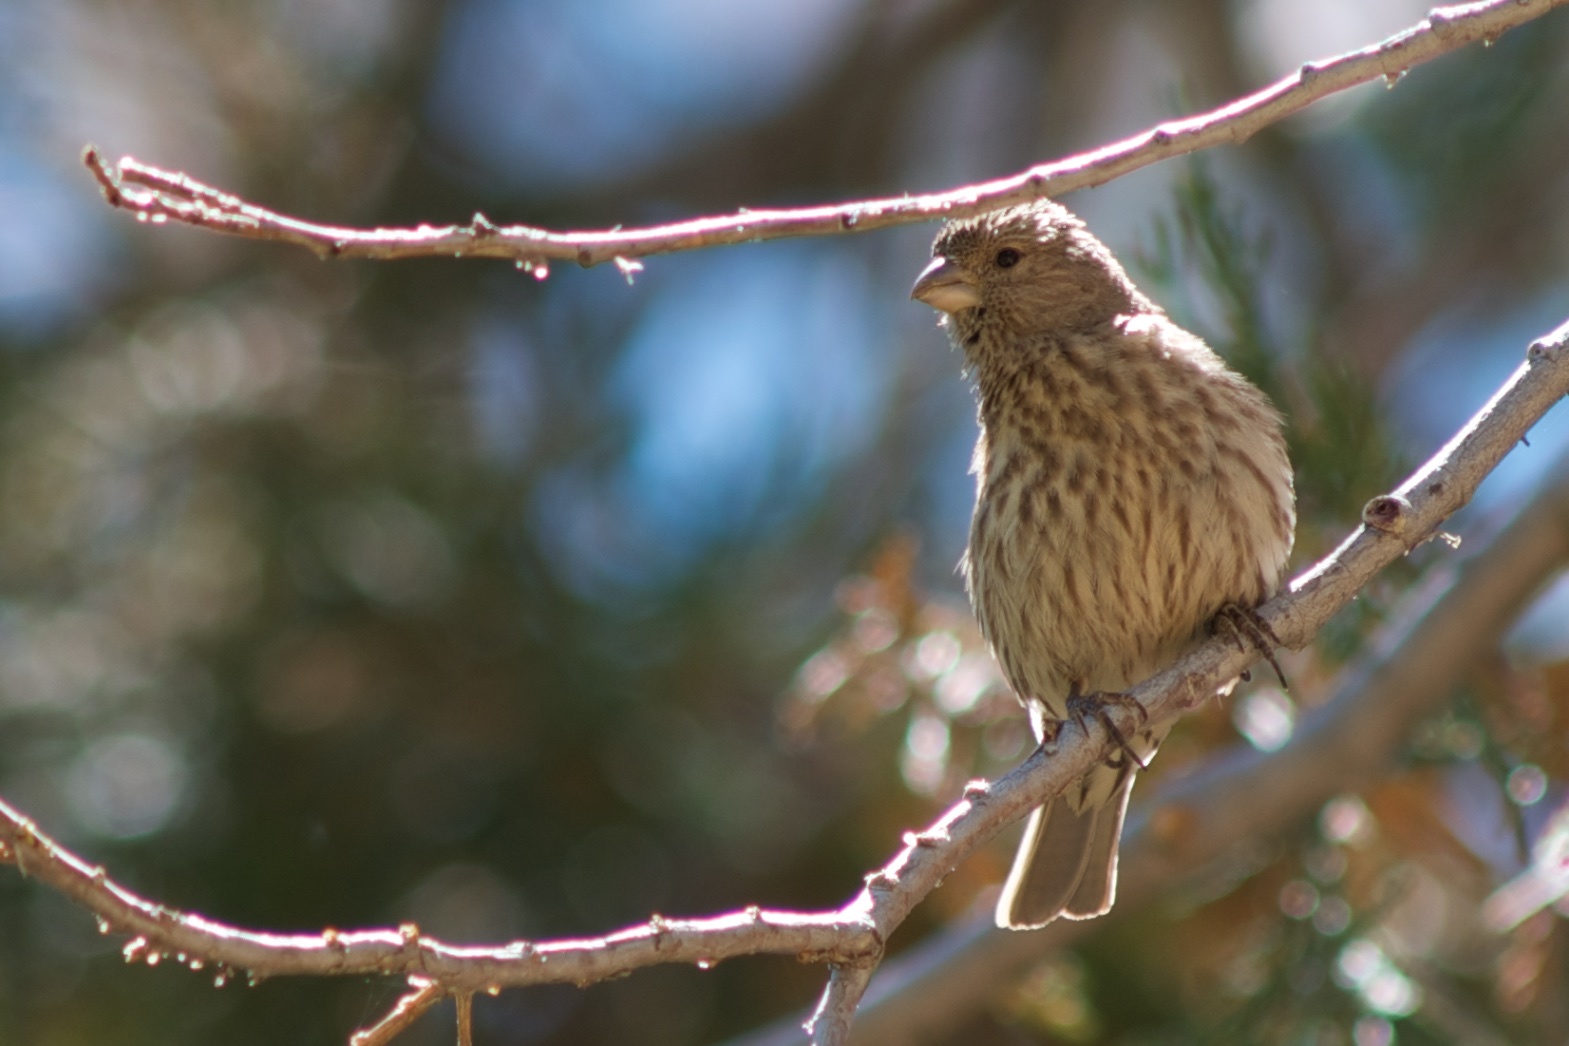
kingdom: Animalia
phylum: Chordata
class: Aves
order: Passeriformes
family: Fringillidae
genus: Haemorhous
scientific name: Haemorhous mexicanus
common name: House finch
